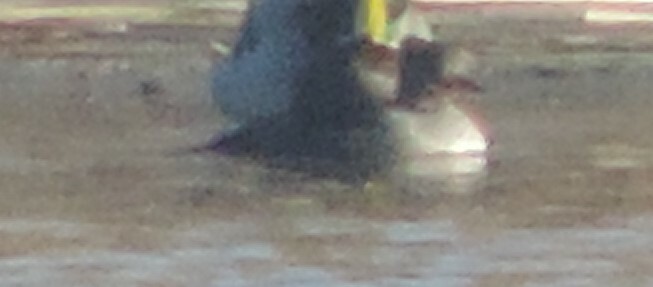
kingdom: Animalia
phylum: Chordata
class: Aves
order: Anseriformes
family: Anatidae
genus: Lophodytes
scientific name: Lophodytes cucullatus
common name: Hooded merganser
